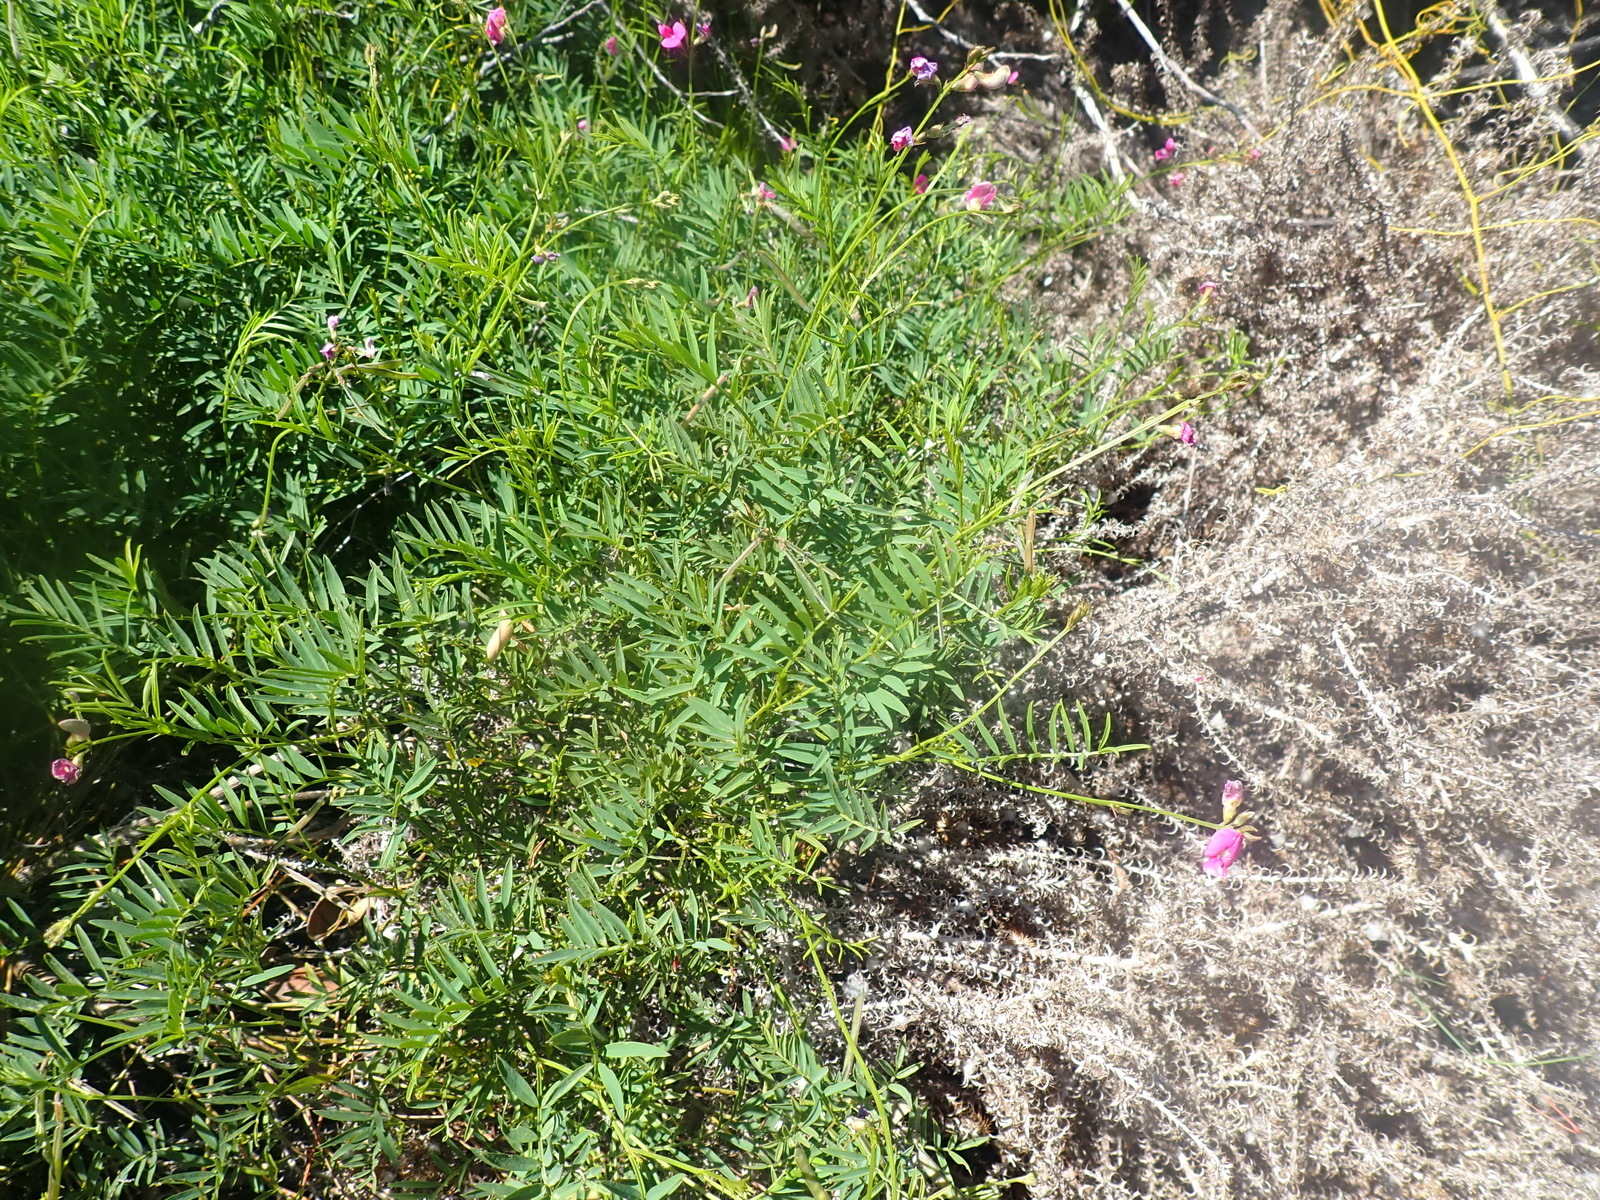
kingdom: Plantae
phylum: Tracheophyta
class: Magnoliopsida
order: Fabales
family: Fabaceae
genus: Tephrosia
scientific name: Tephrosia capensis
